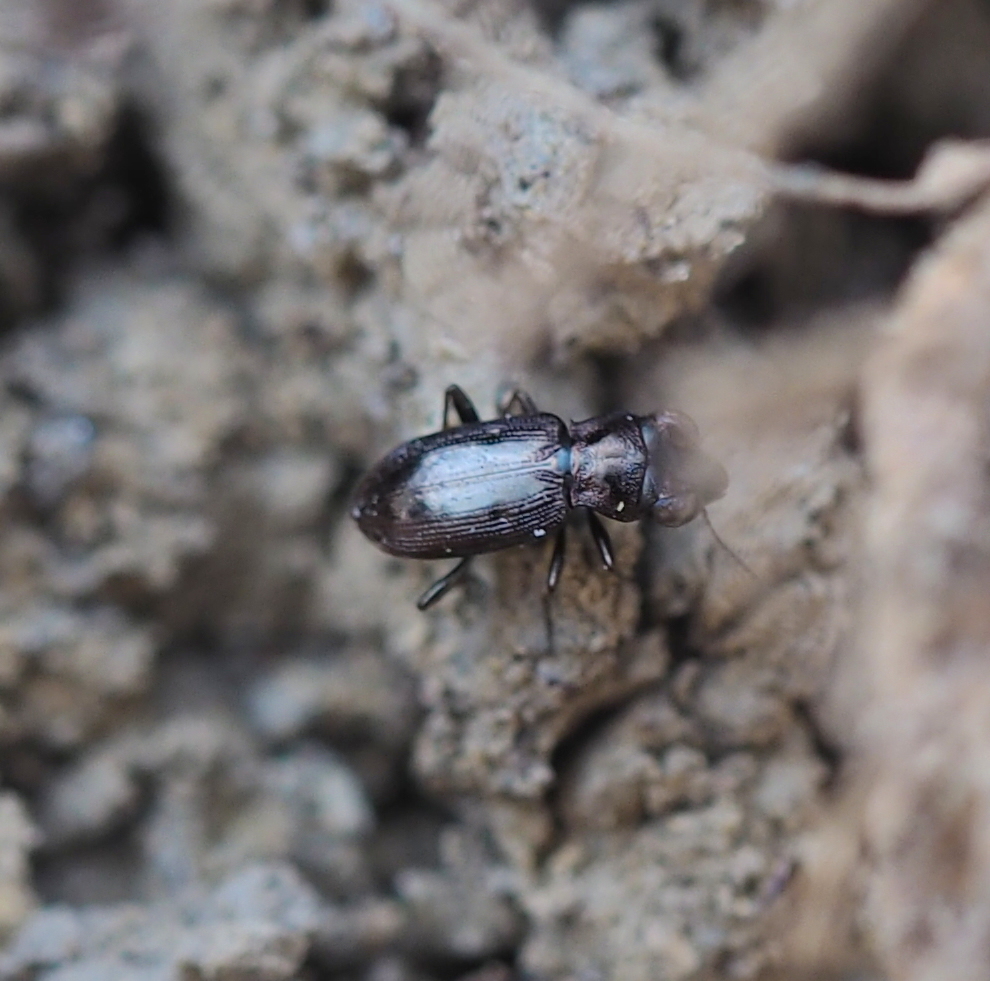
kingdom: Animalia
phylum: Arthropoda
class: Insecta
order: Coleoptera
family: Carabidae
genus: Notiophilus
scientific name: Notiophilus biguttatus
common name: Spotted gazelle beetle
